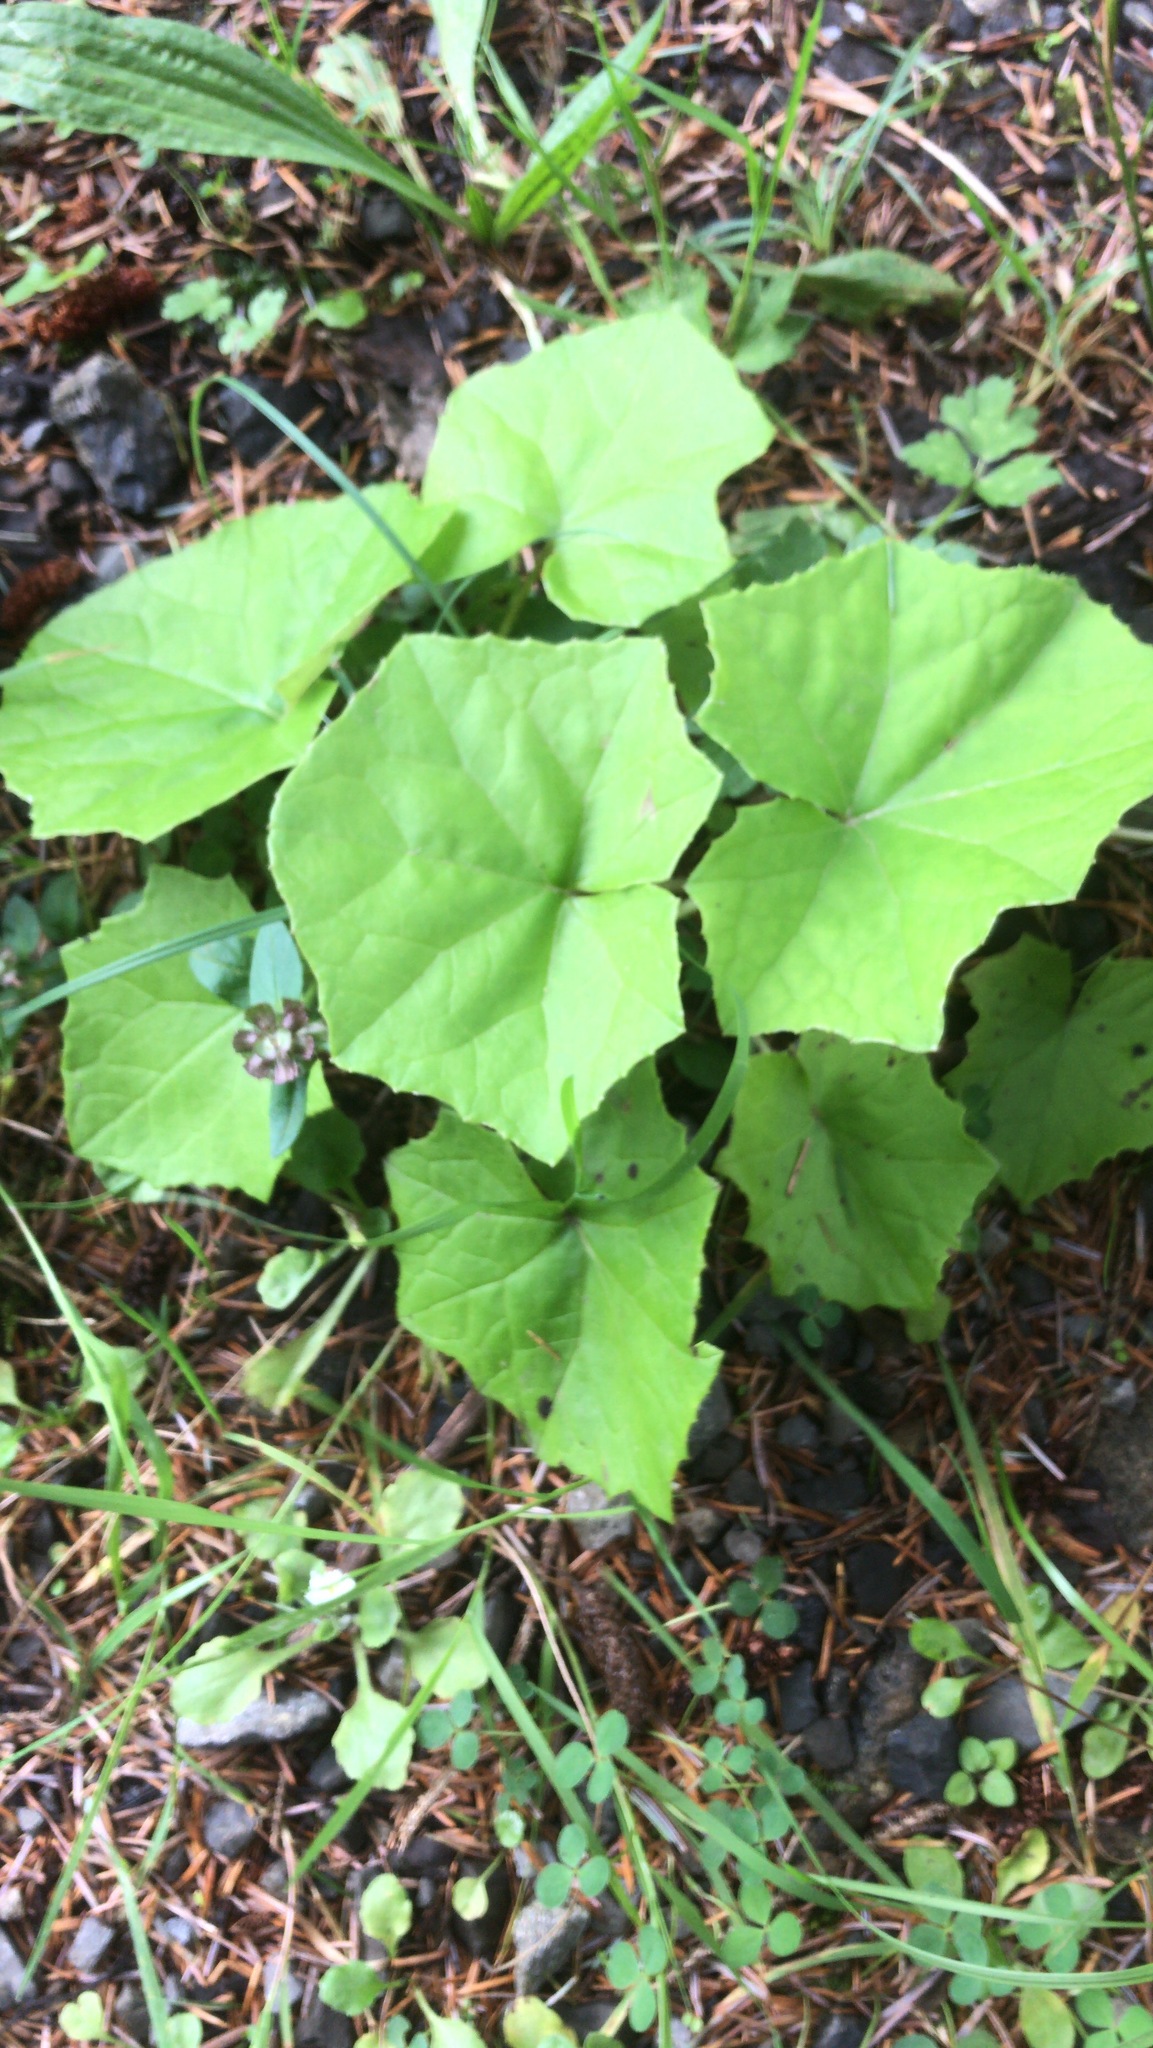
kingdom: Plantae
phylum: Tracheophyta
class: Magnoliopsida
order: Asterales
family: Asteraceae
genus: Tussilago
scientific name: Tussilago farfara
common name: Coltsfoot
